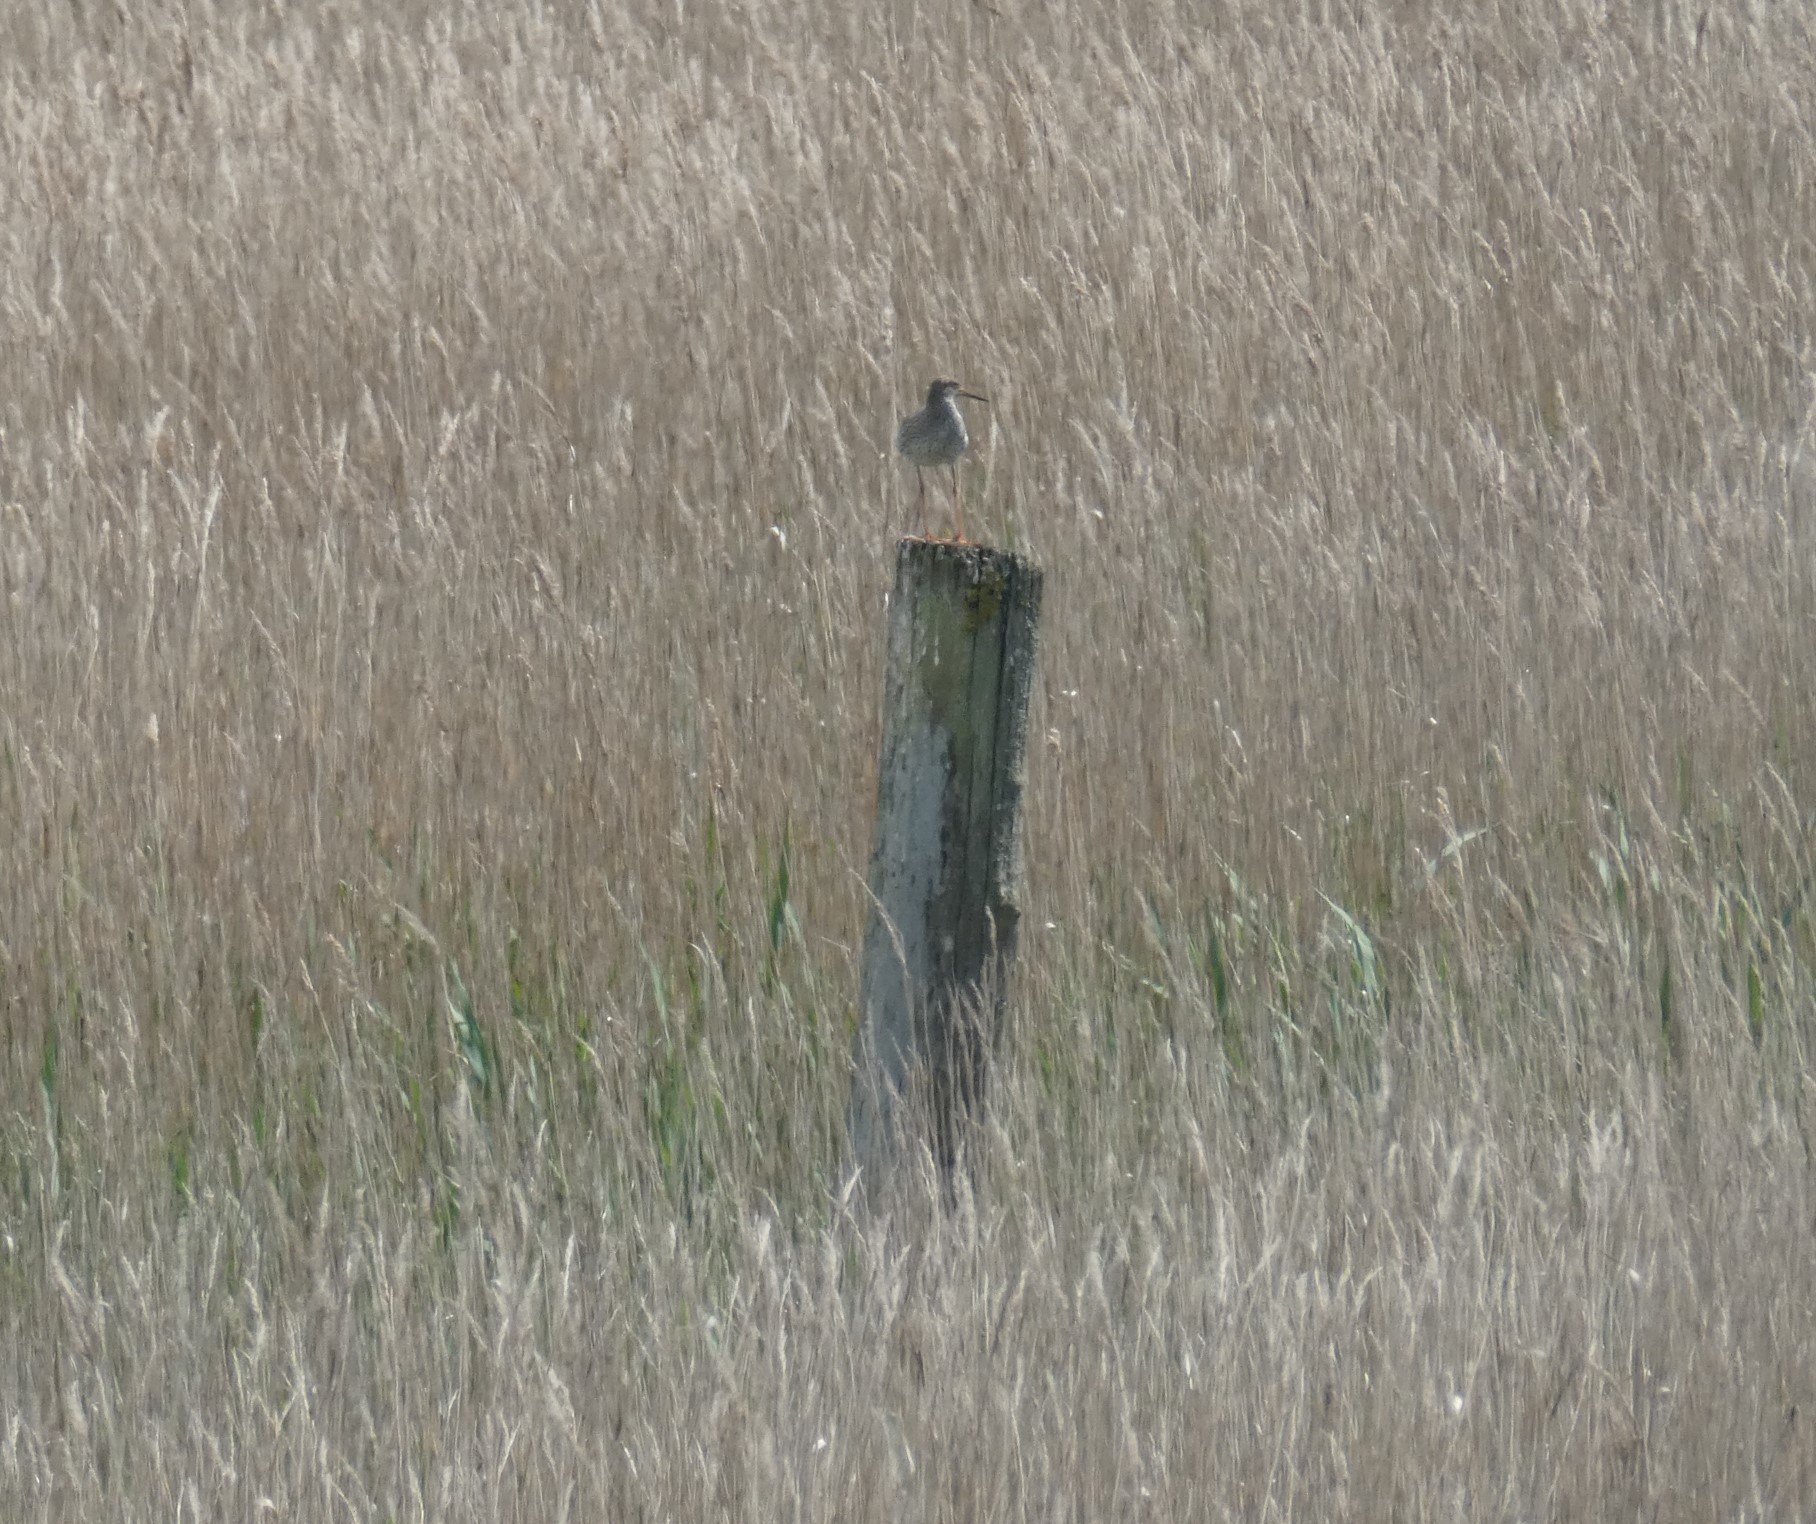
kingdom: Animalia
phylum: Chordata
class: Aves
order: Charadriiformes
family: Scolopacidae
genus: Tringa
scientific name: Tringa totanus
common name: Common redshank
